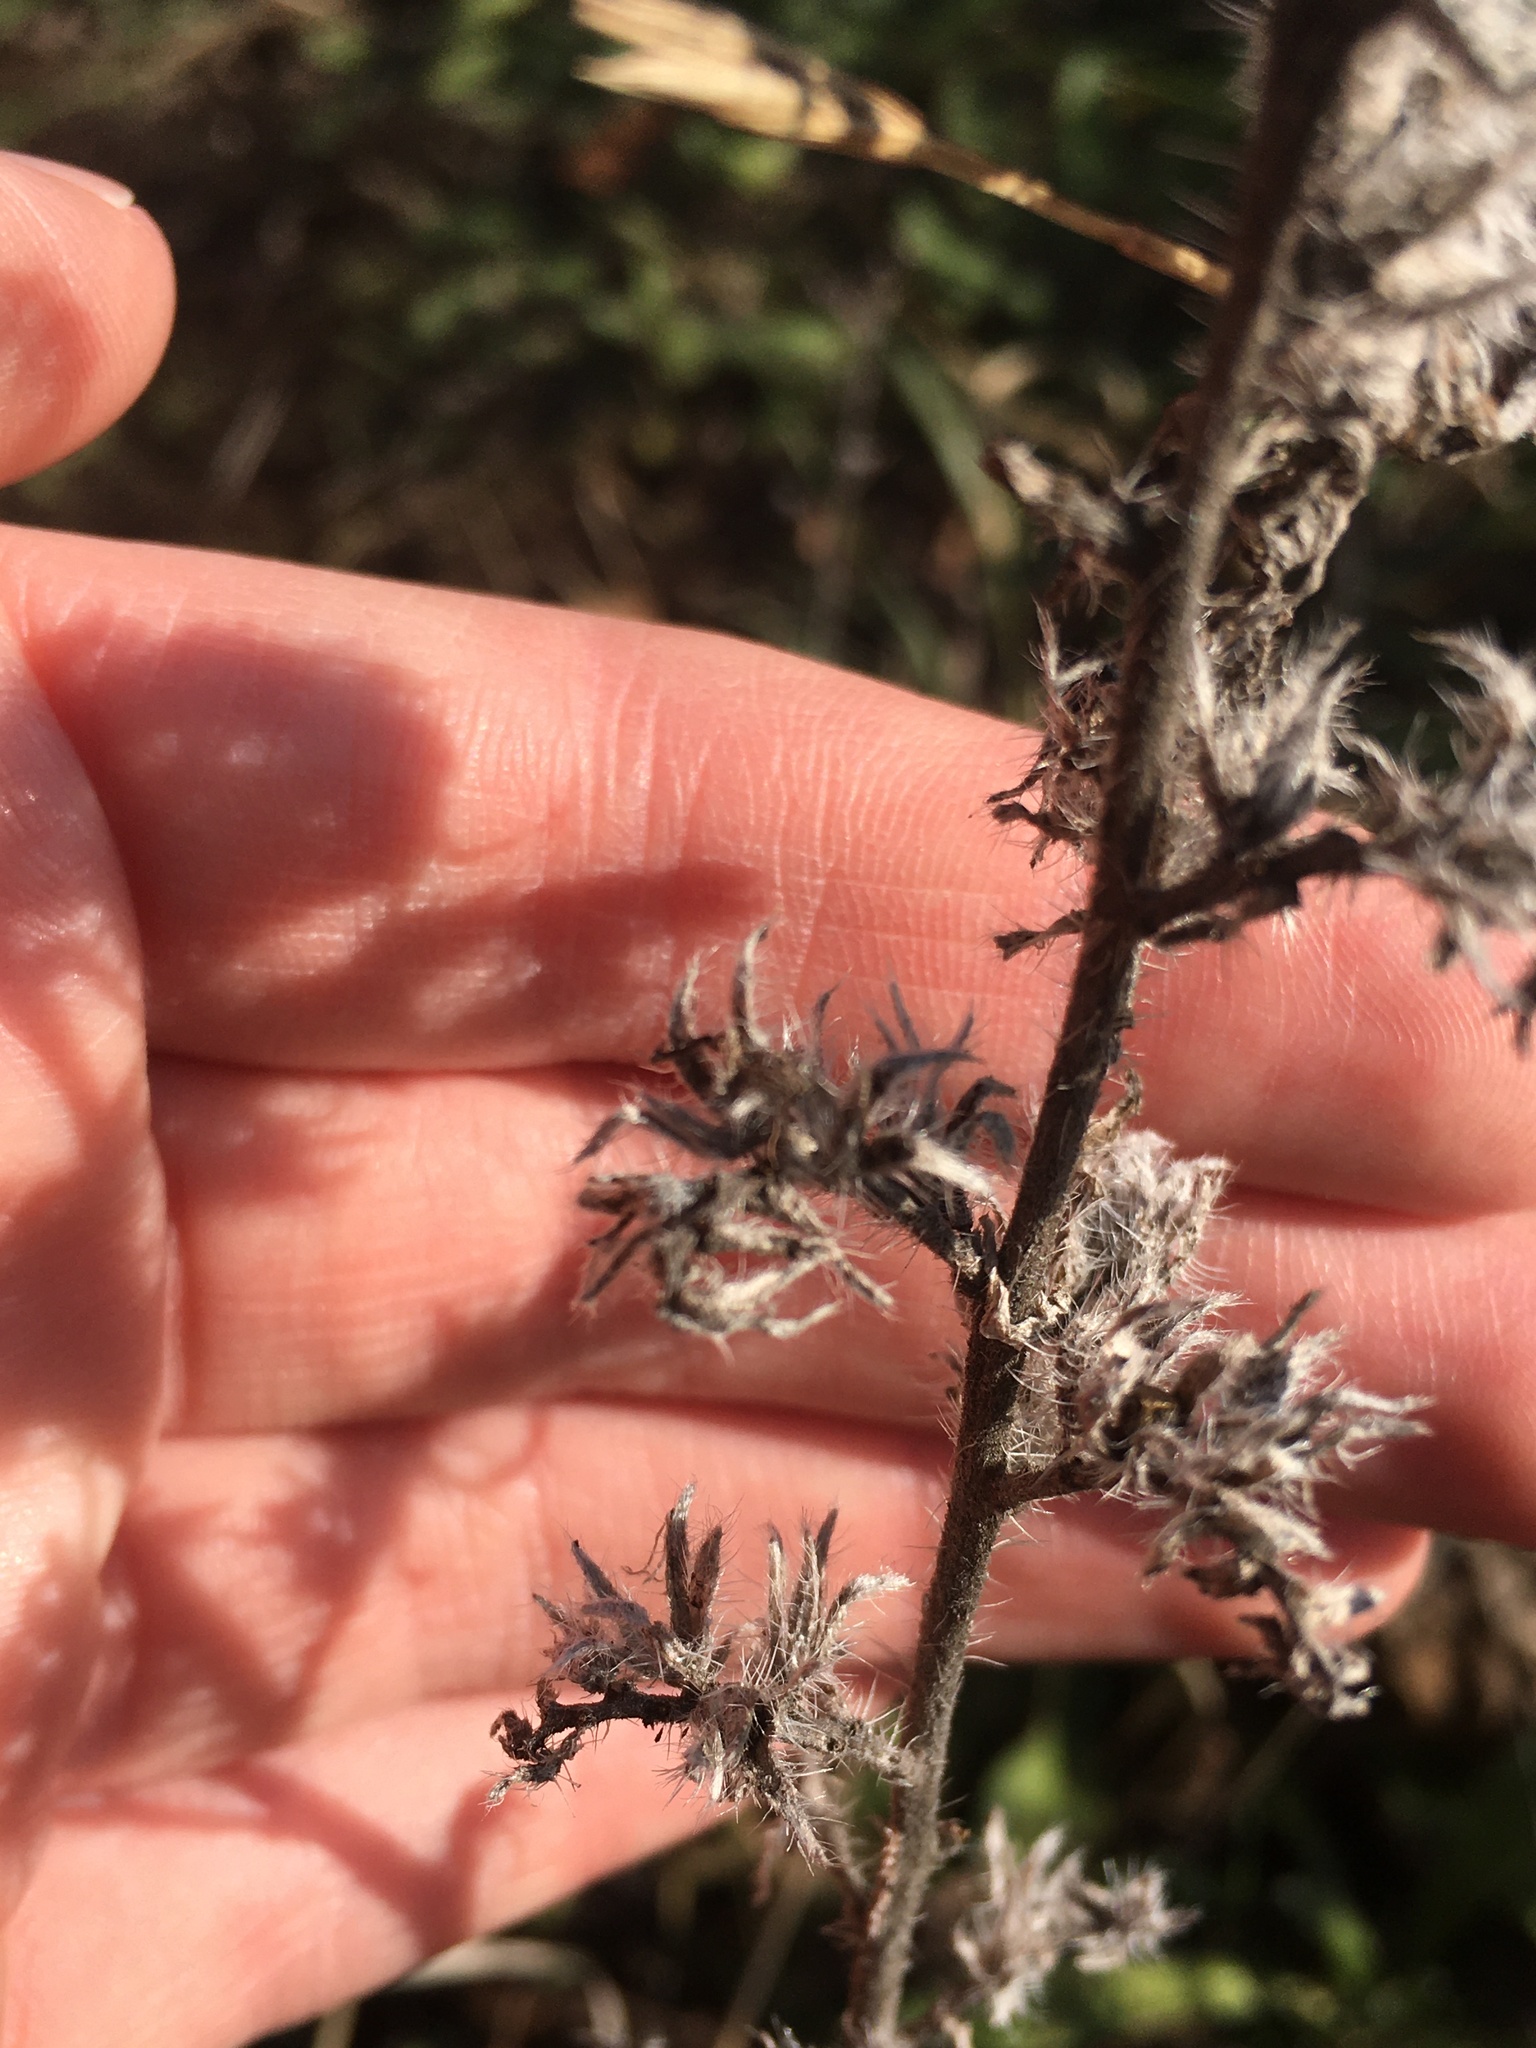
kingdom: Plantae
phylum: Tracheophyta
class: Magnoliopsida
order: Boraginales
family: Boraginaceae
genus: Echium
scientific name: Echium vulgare
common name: Common viper's bugloss
